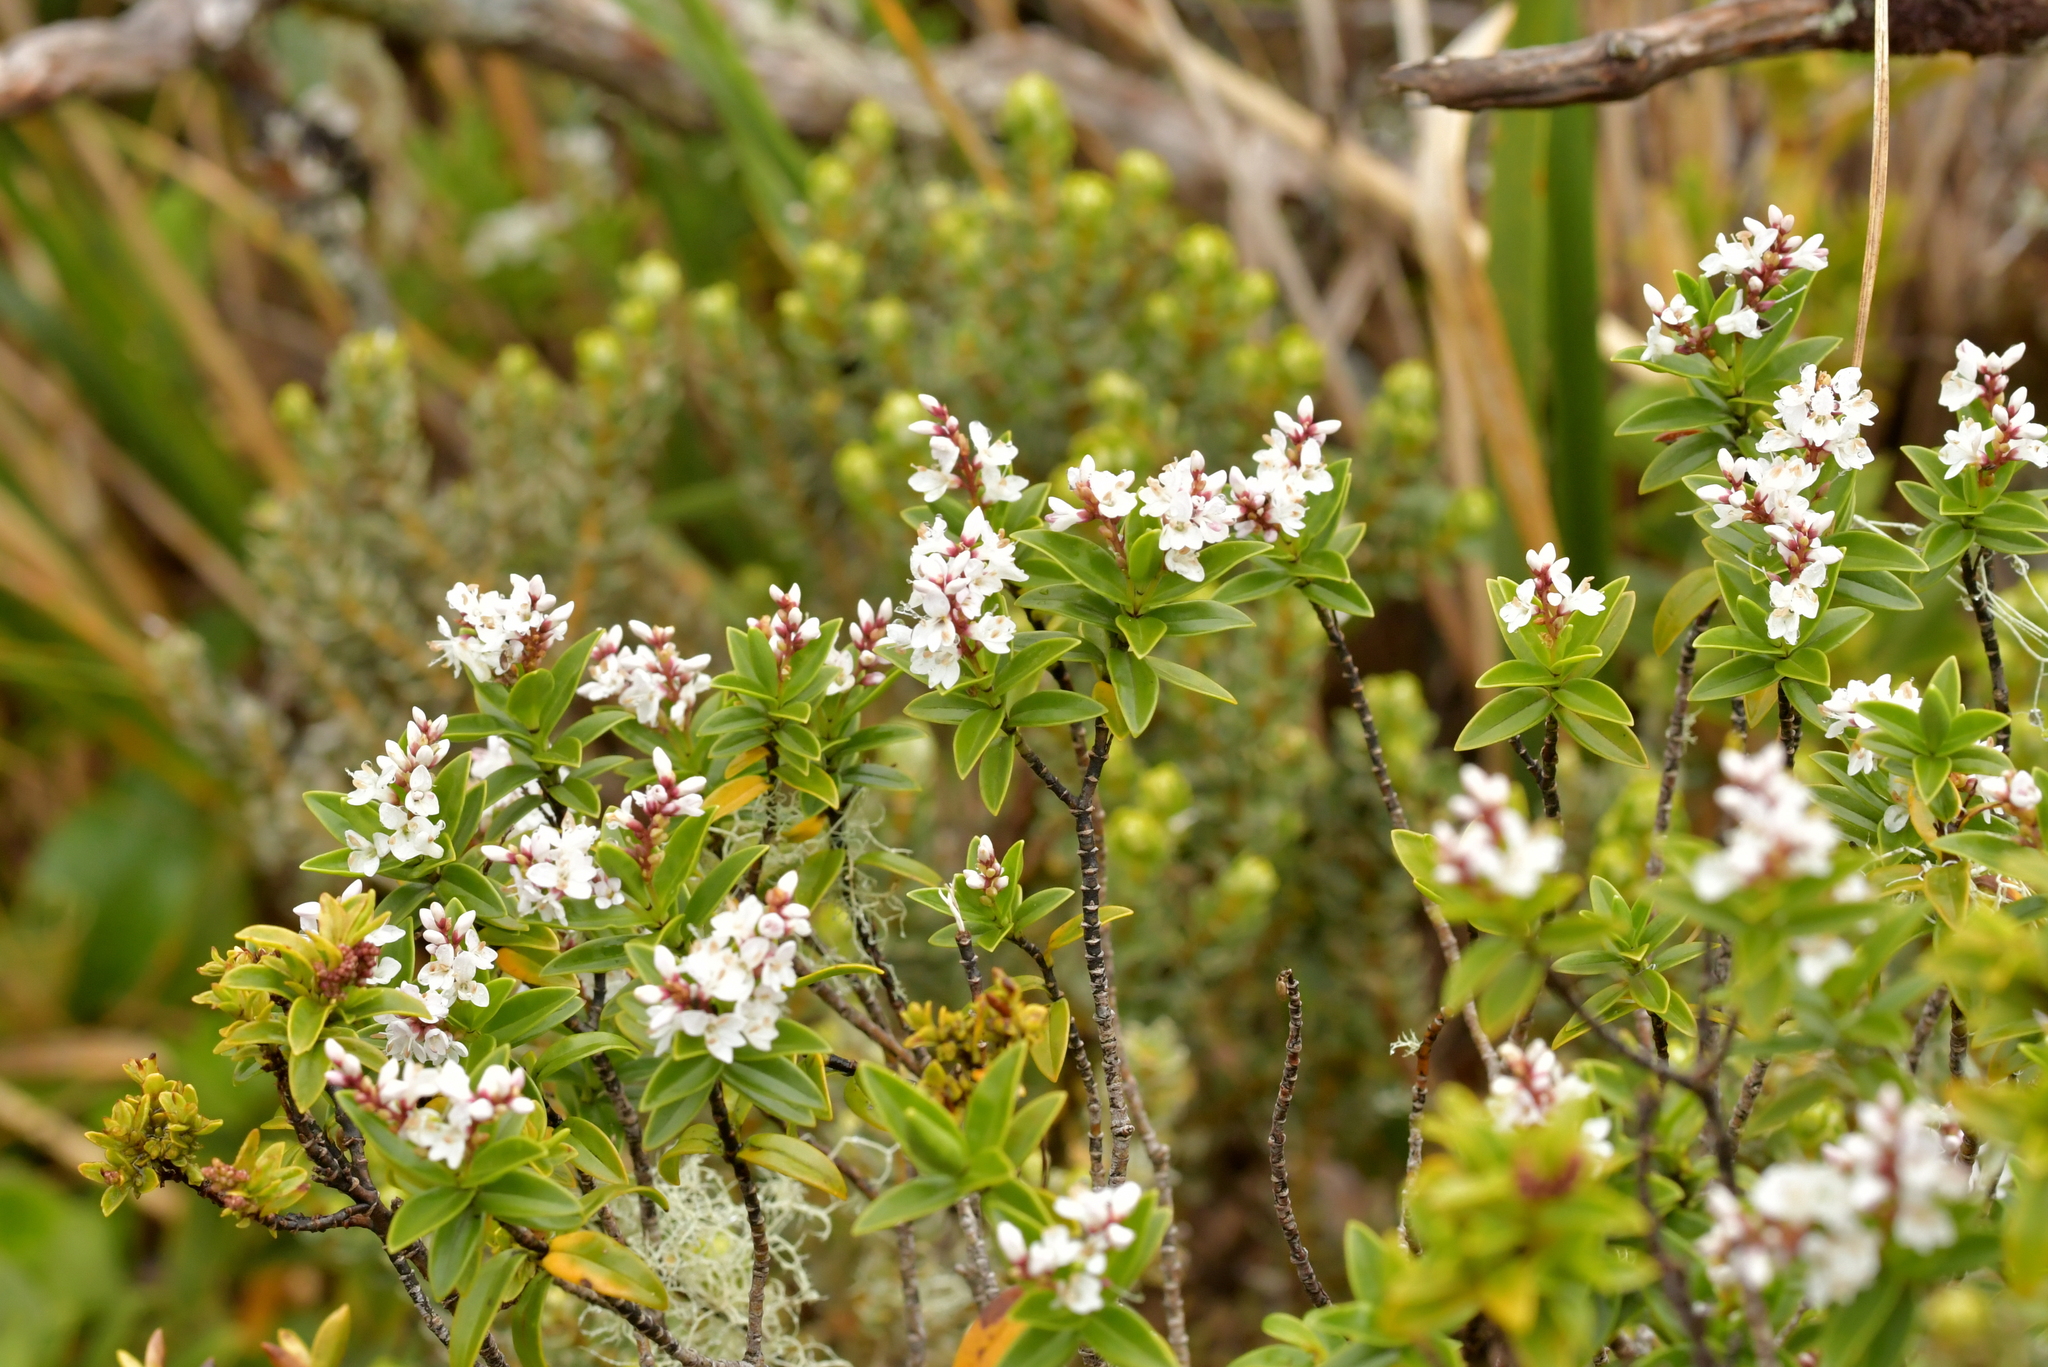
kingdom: Plantae
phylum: Tracheophyta
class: Magnoliopsida
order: Lamiales
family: Plantaginaceae
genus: Veronica
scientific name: Veronica subalpina
